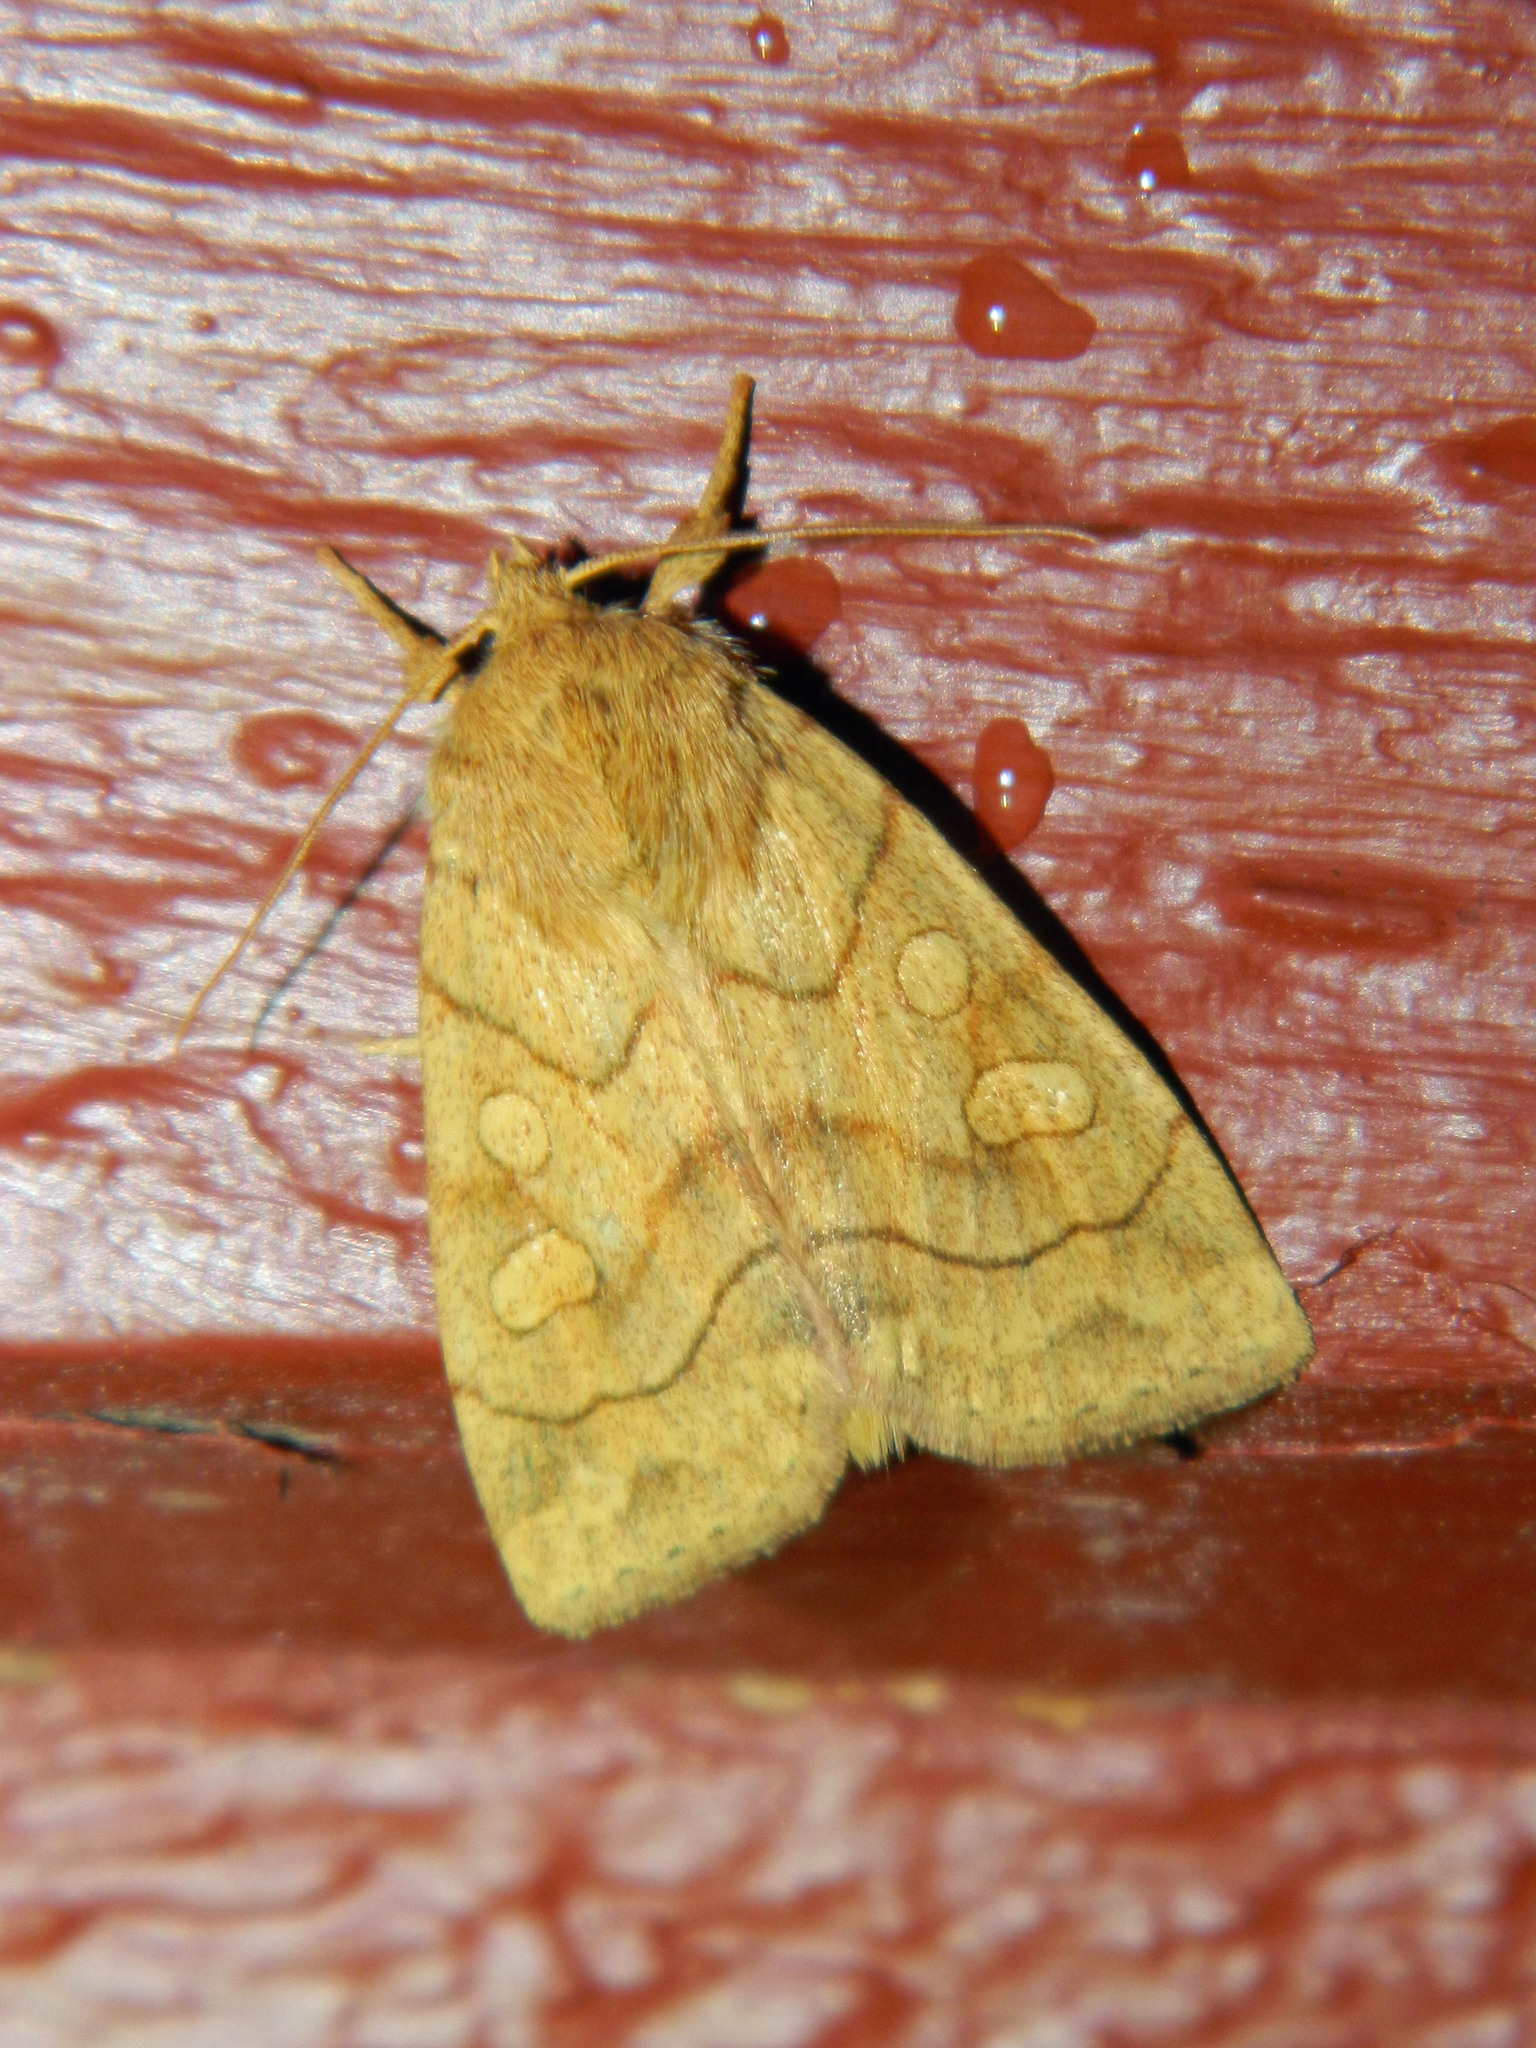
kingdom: Animalia
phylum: Arthropoda
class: Insecta
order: Lepidoptera
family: Noctuidae
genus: Enargia
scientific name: Enargia decolor
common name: Aspen twoleaf tier moth
